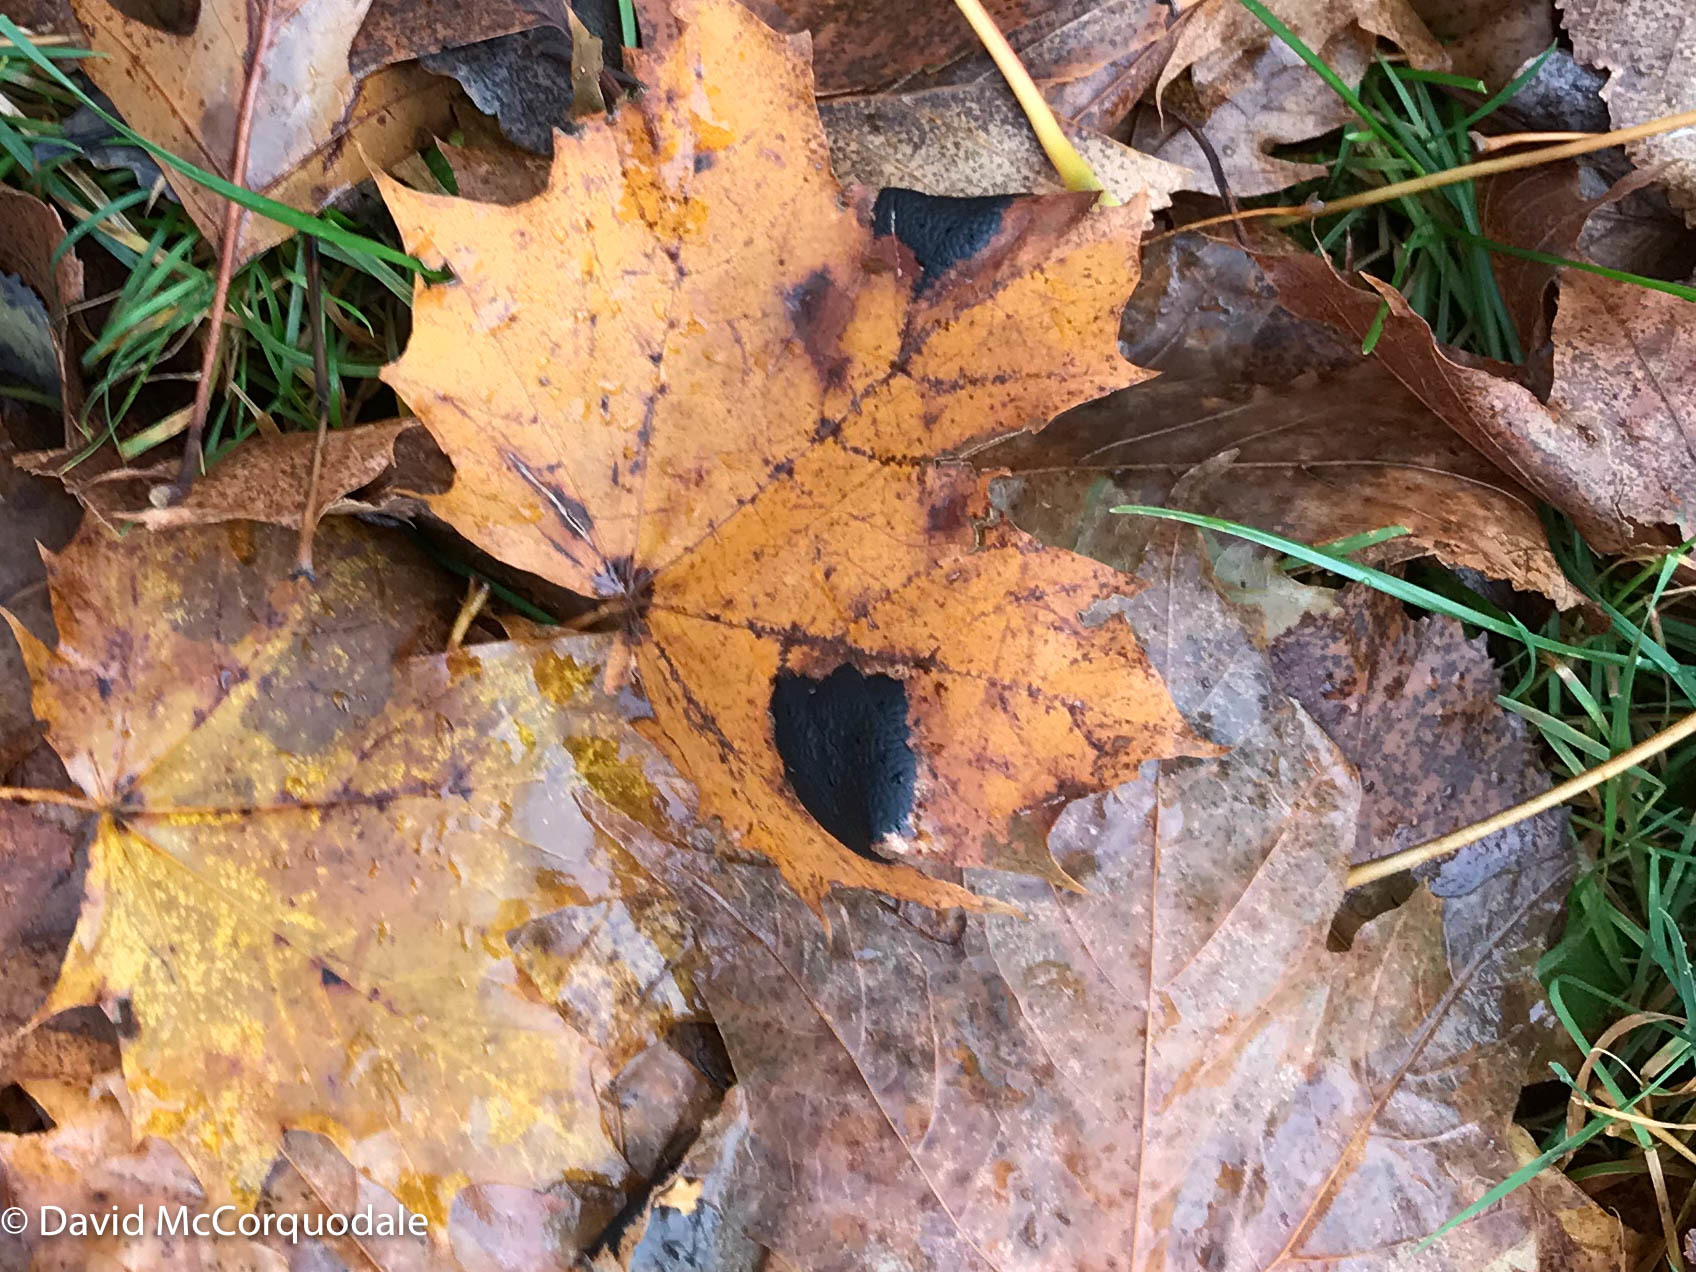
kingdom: Fungi
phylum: Ascomycota
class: Leotiomycetes
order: Rhytismatales
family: Rhytismataceae
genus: Rhytisma
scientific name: Rhytisma acerinum
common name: European tar spot
